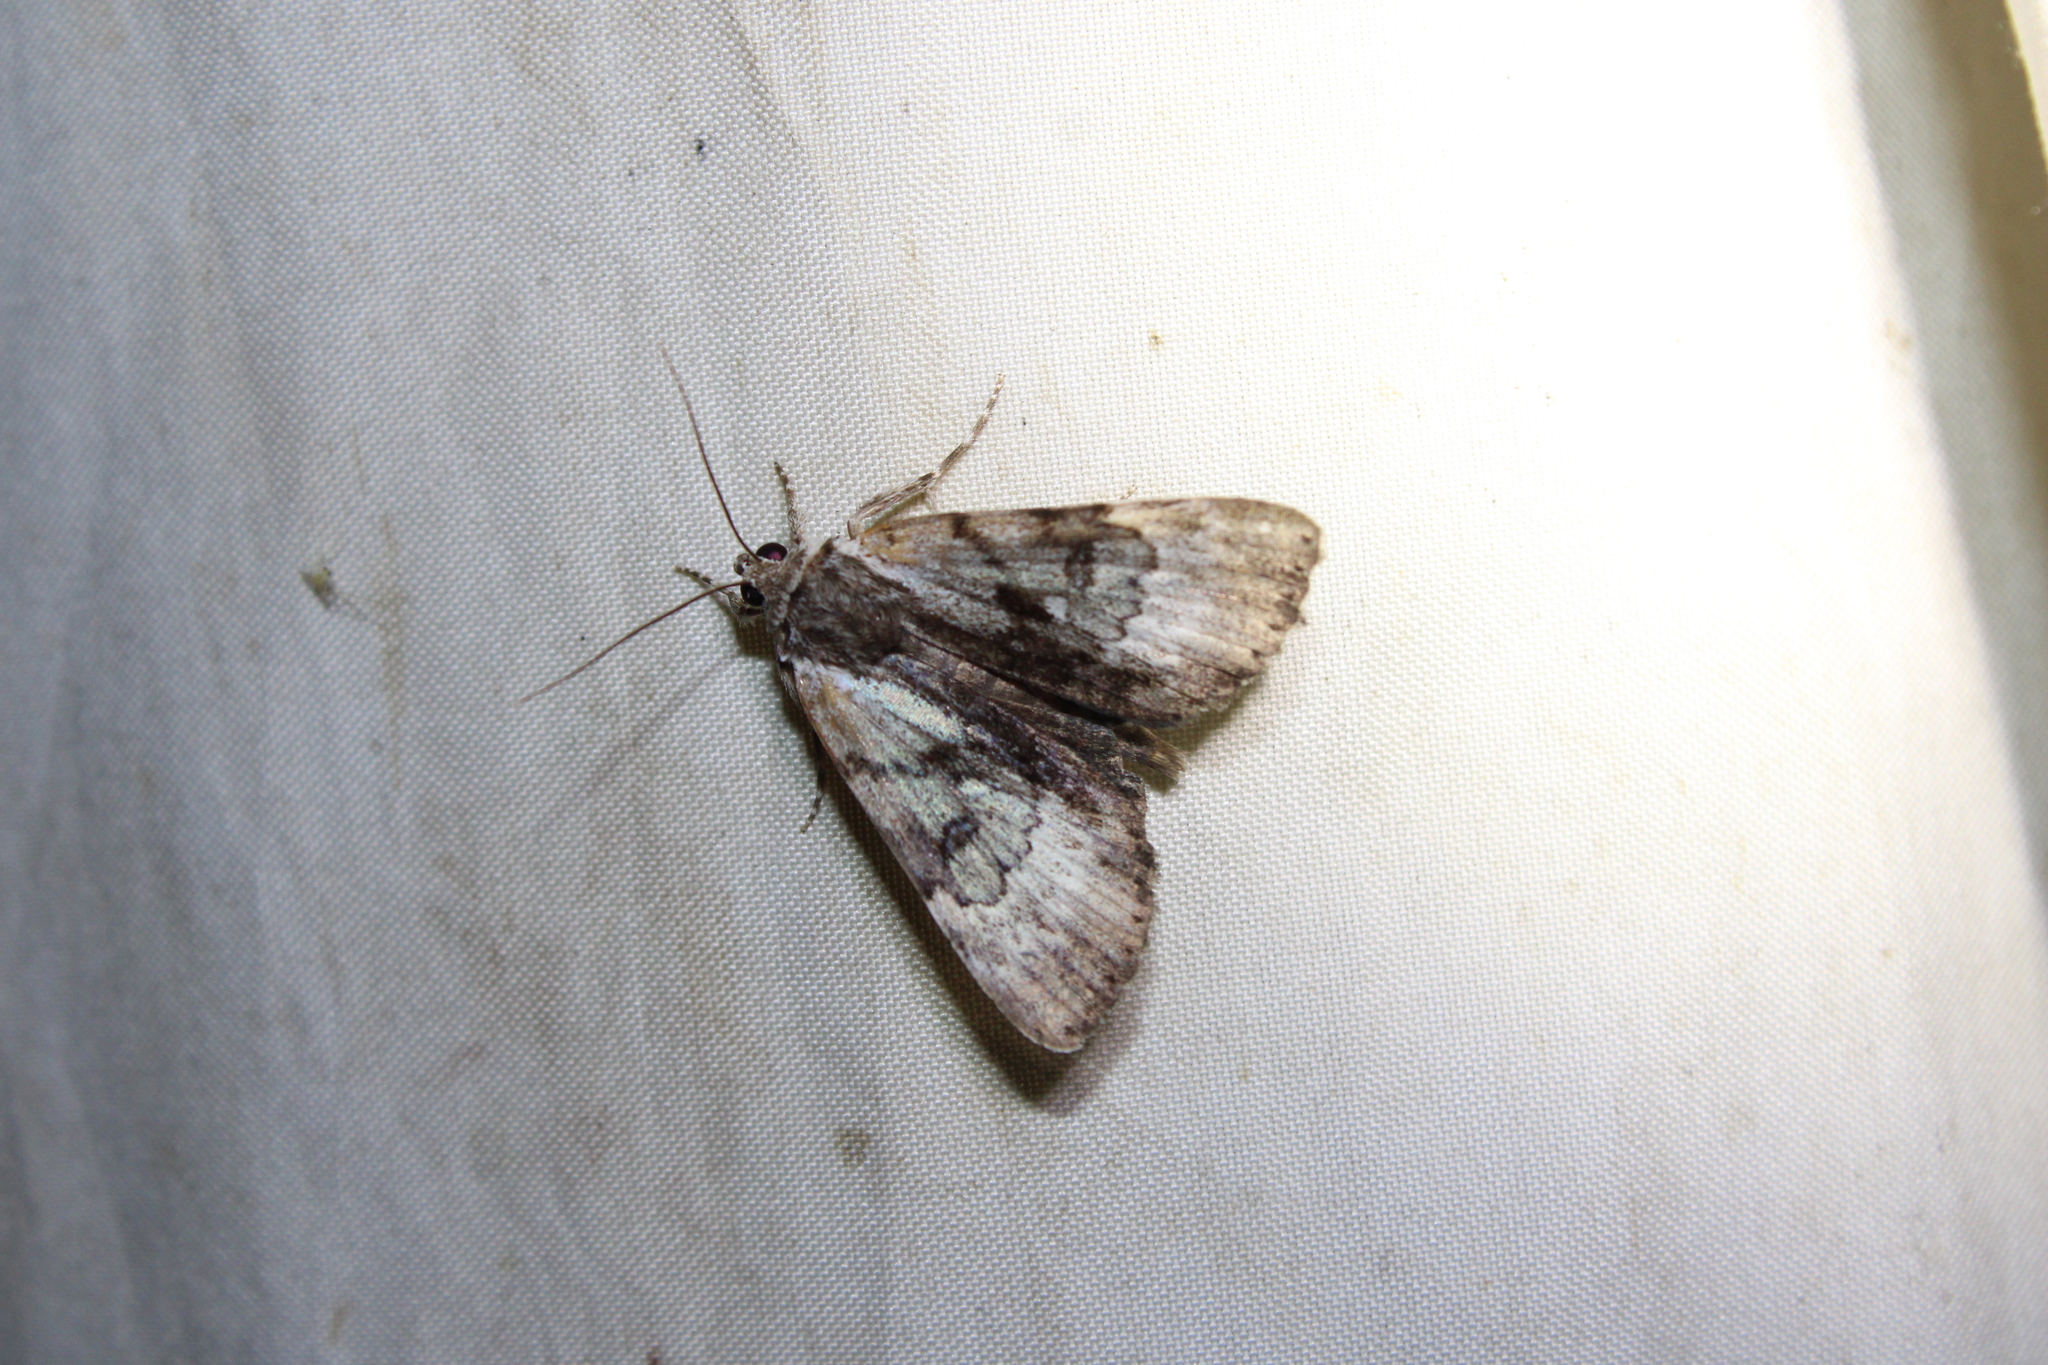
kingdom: Animalia
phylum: Arthropoda
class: Insecta
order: Lepidoptera
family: Erebidae
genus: Catocala
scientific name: Catocala andromedae
